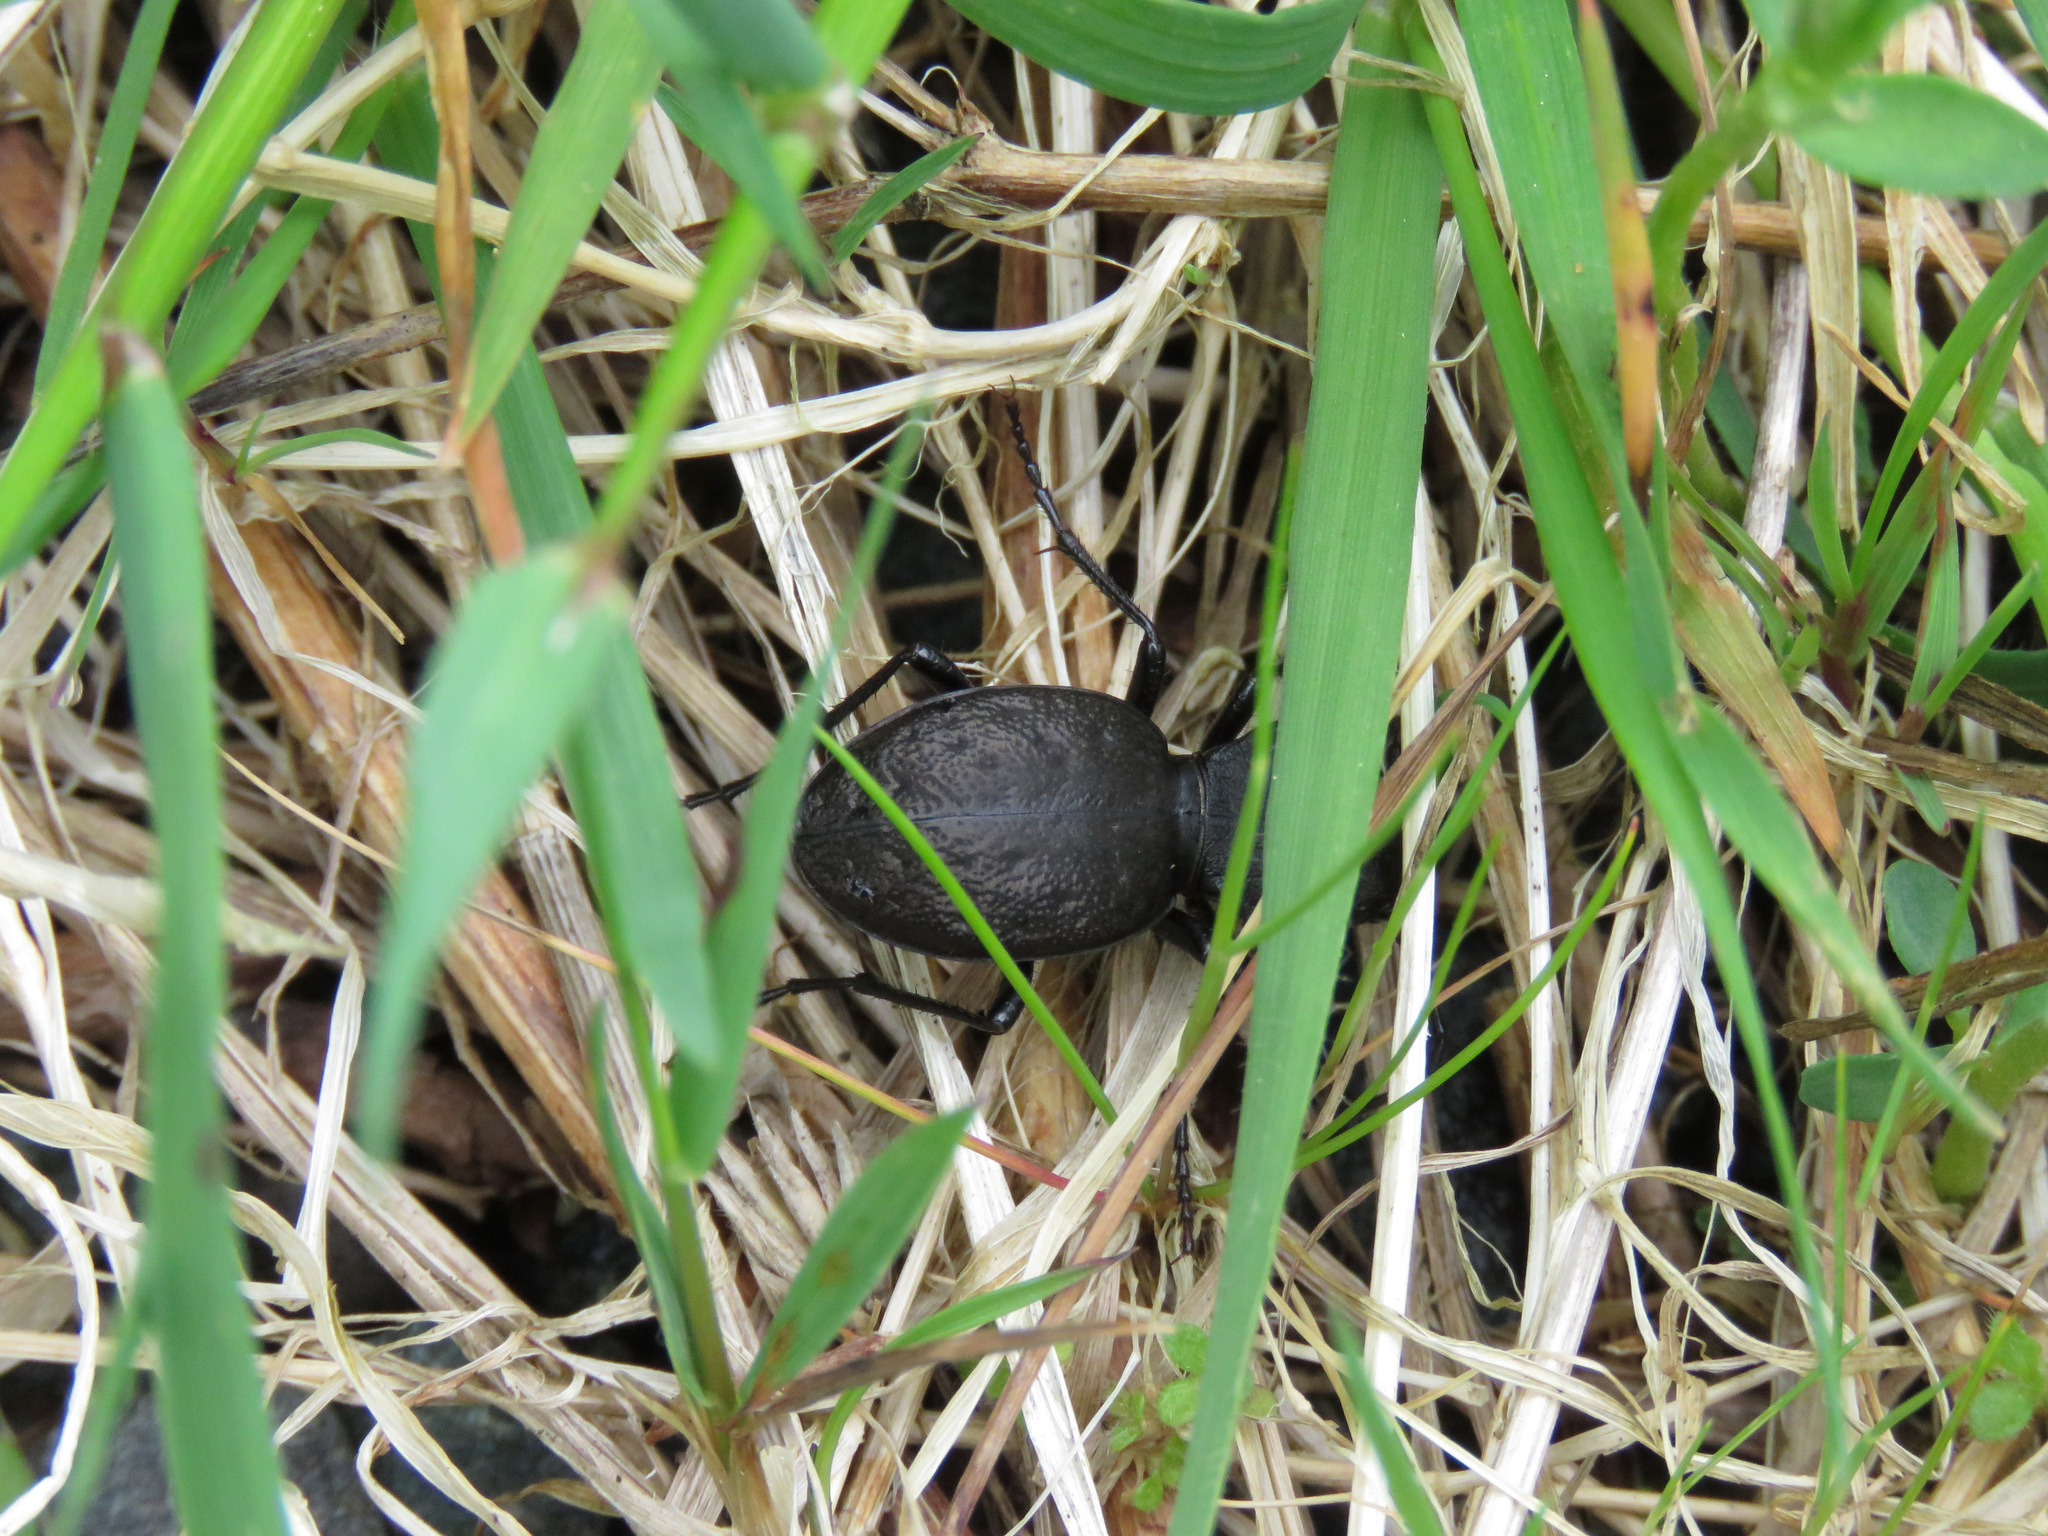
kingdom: Animalia
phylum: Arthropoda
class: Insecta
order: Coleoptera
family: Carabidae
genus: Omus
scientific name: Omus dejeanii
